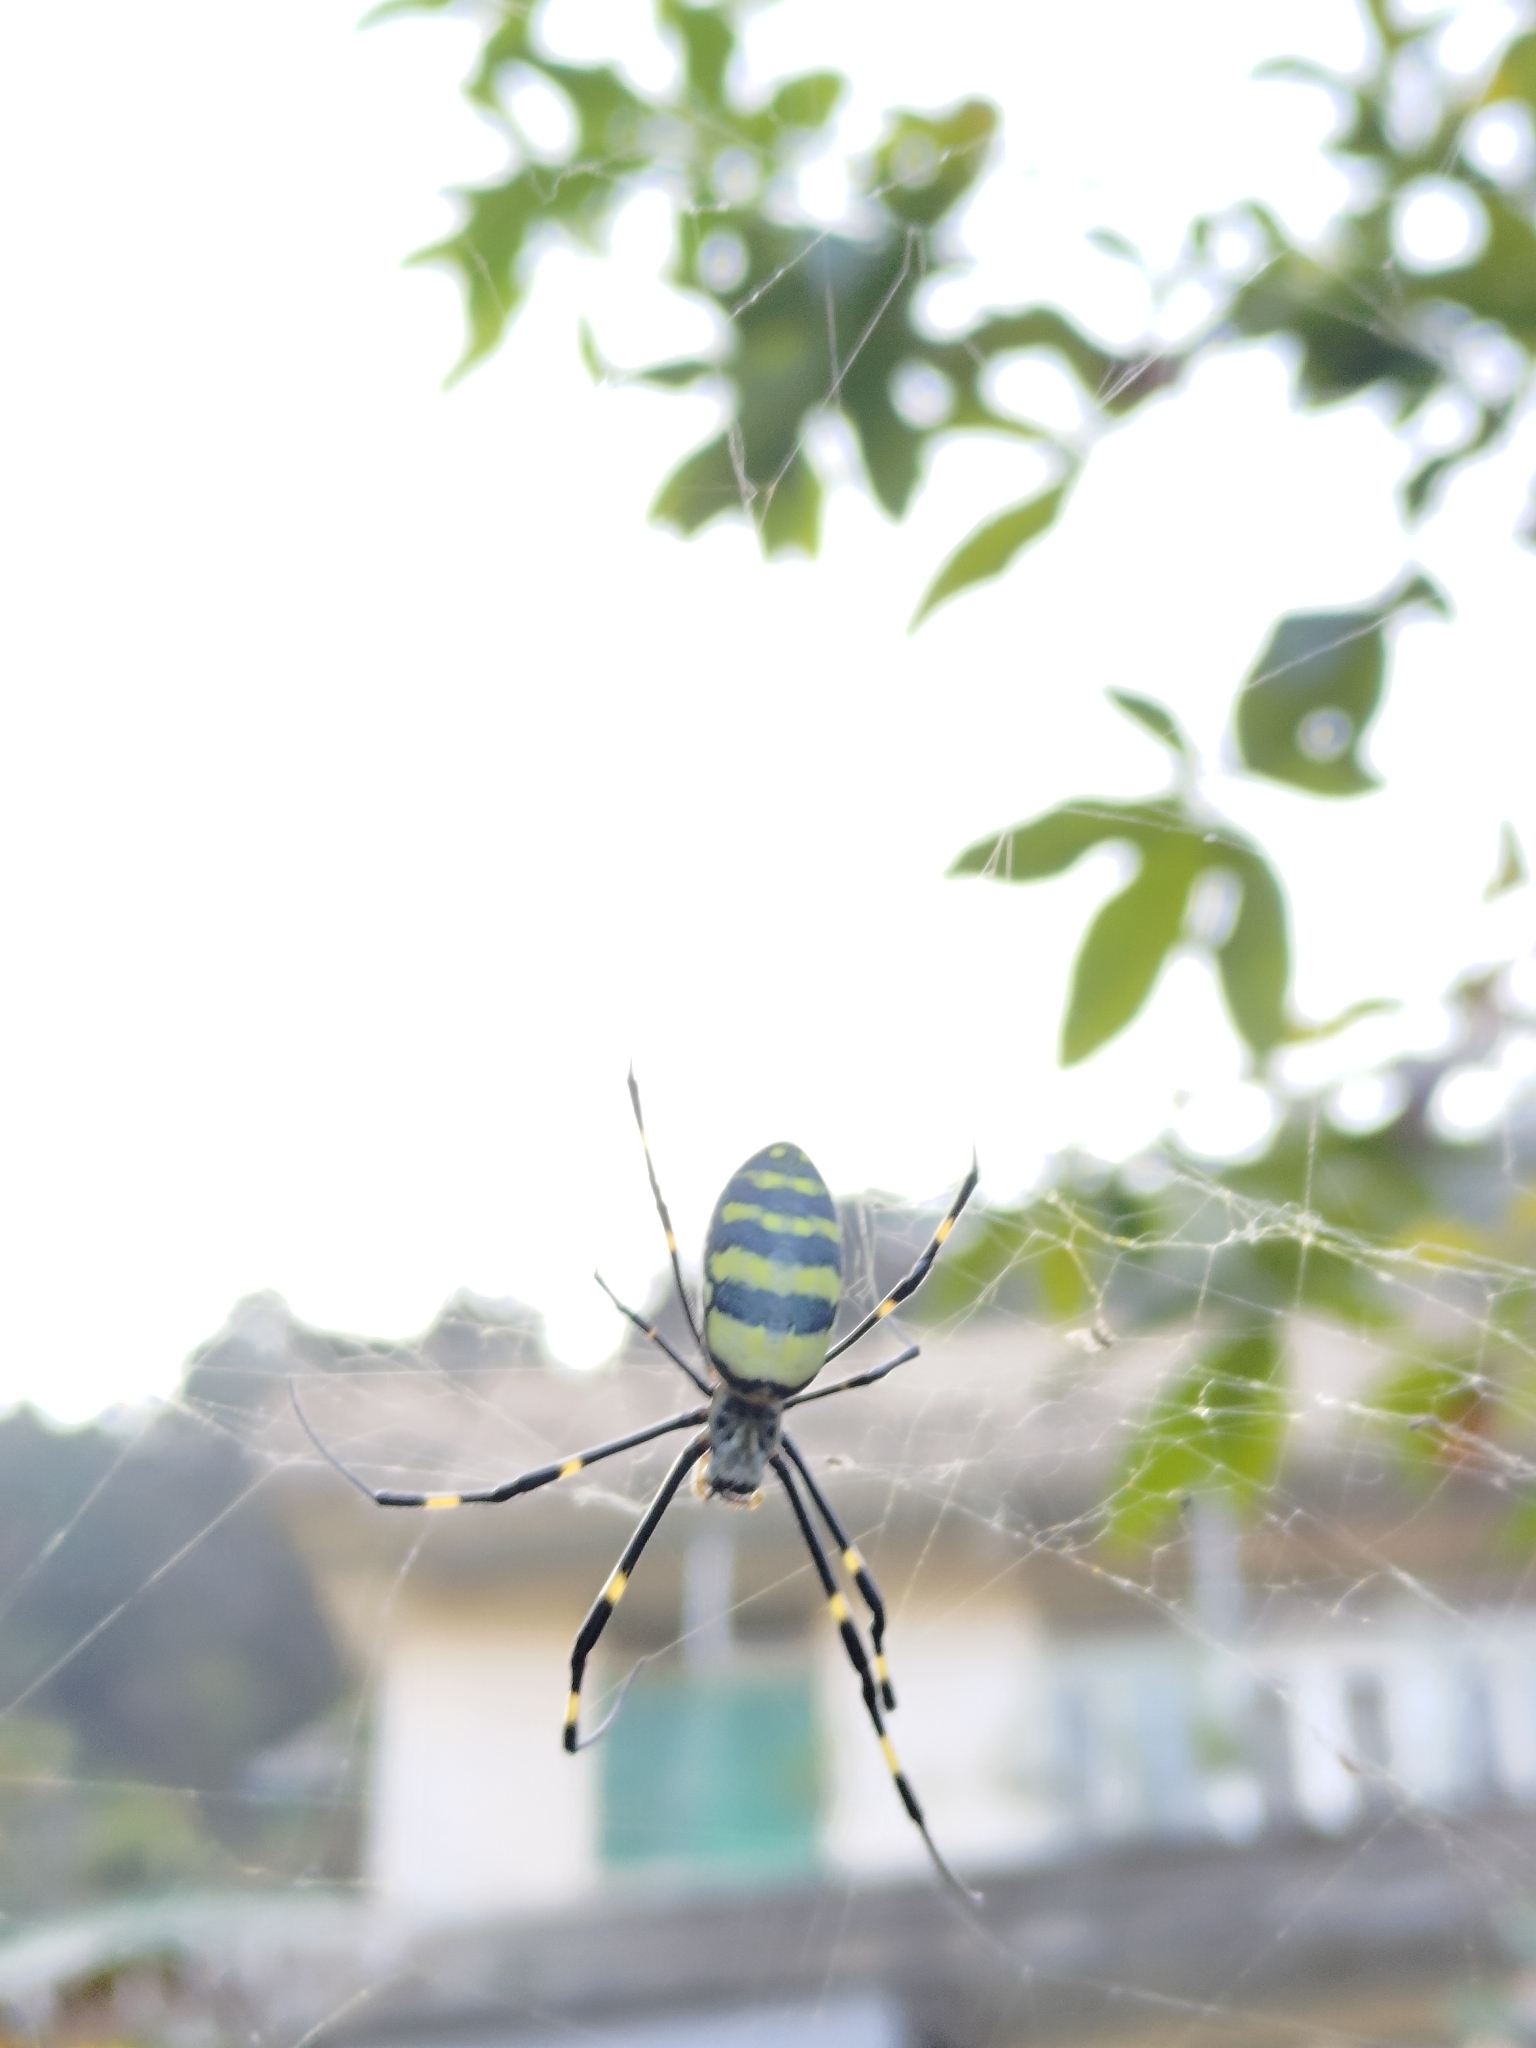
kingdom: Animalia
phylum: Arthropoda
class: Arachnida
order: Araneae
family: Araneidae
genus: Trichonephila
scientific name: Trichonephila clavata
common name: Jorō spider
